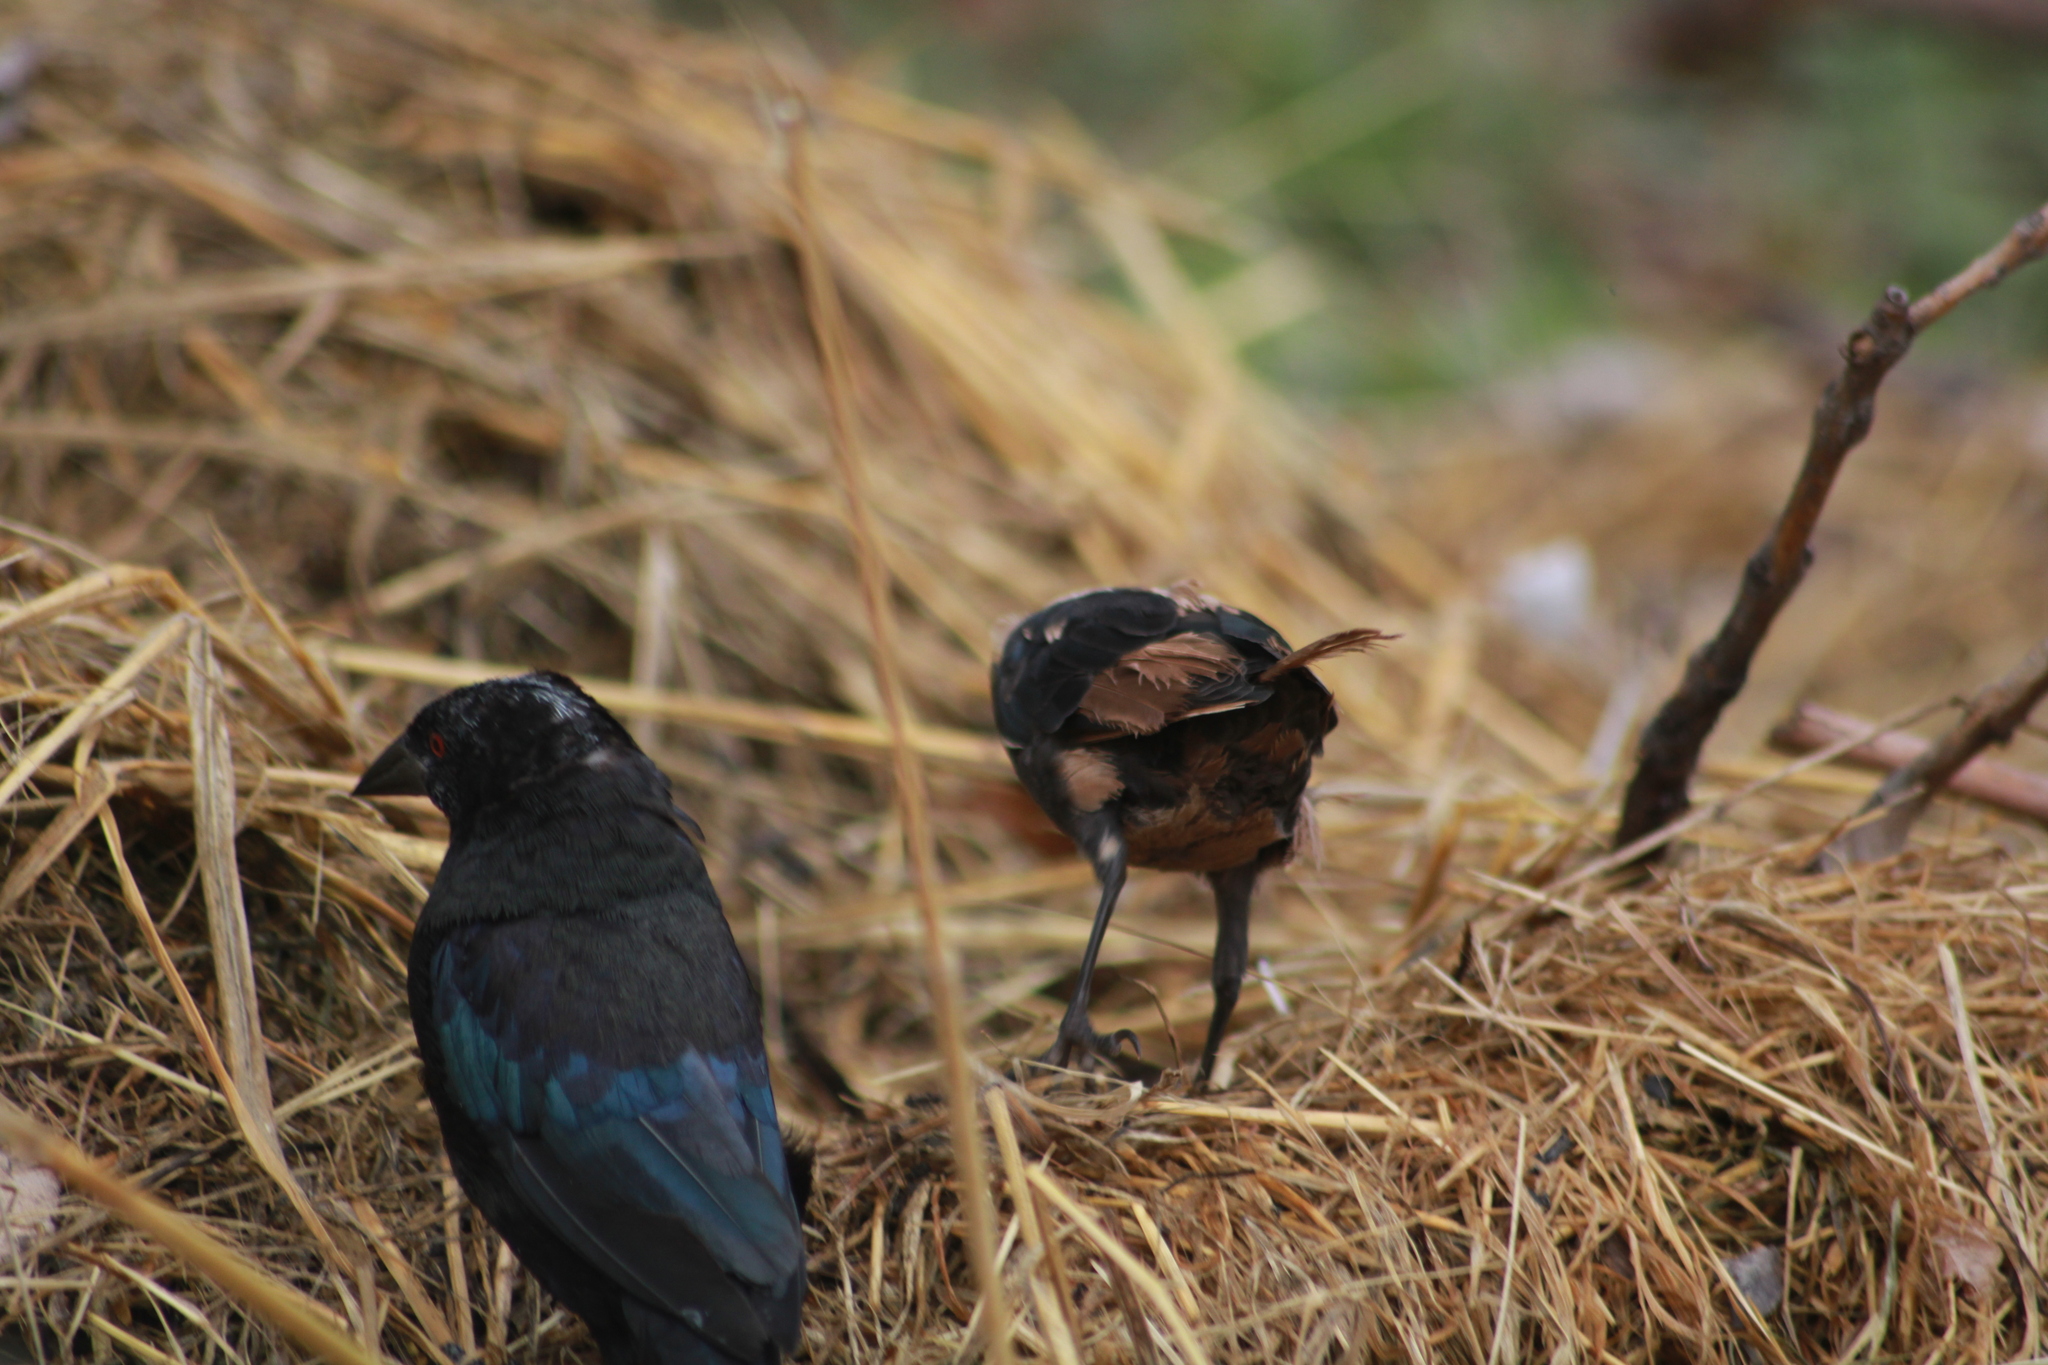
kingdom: Animalia
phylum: Chordata
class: Aves
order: Passeriformes
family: Icteridae
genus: Molothrus
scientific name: Molothrus aeneus
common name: Bronzed cowbird
